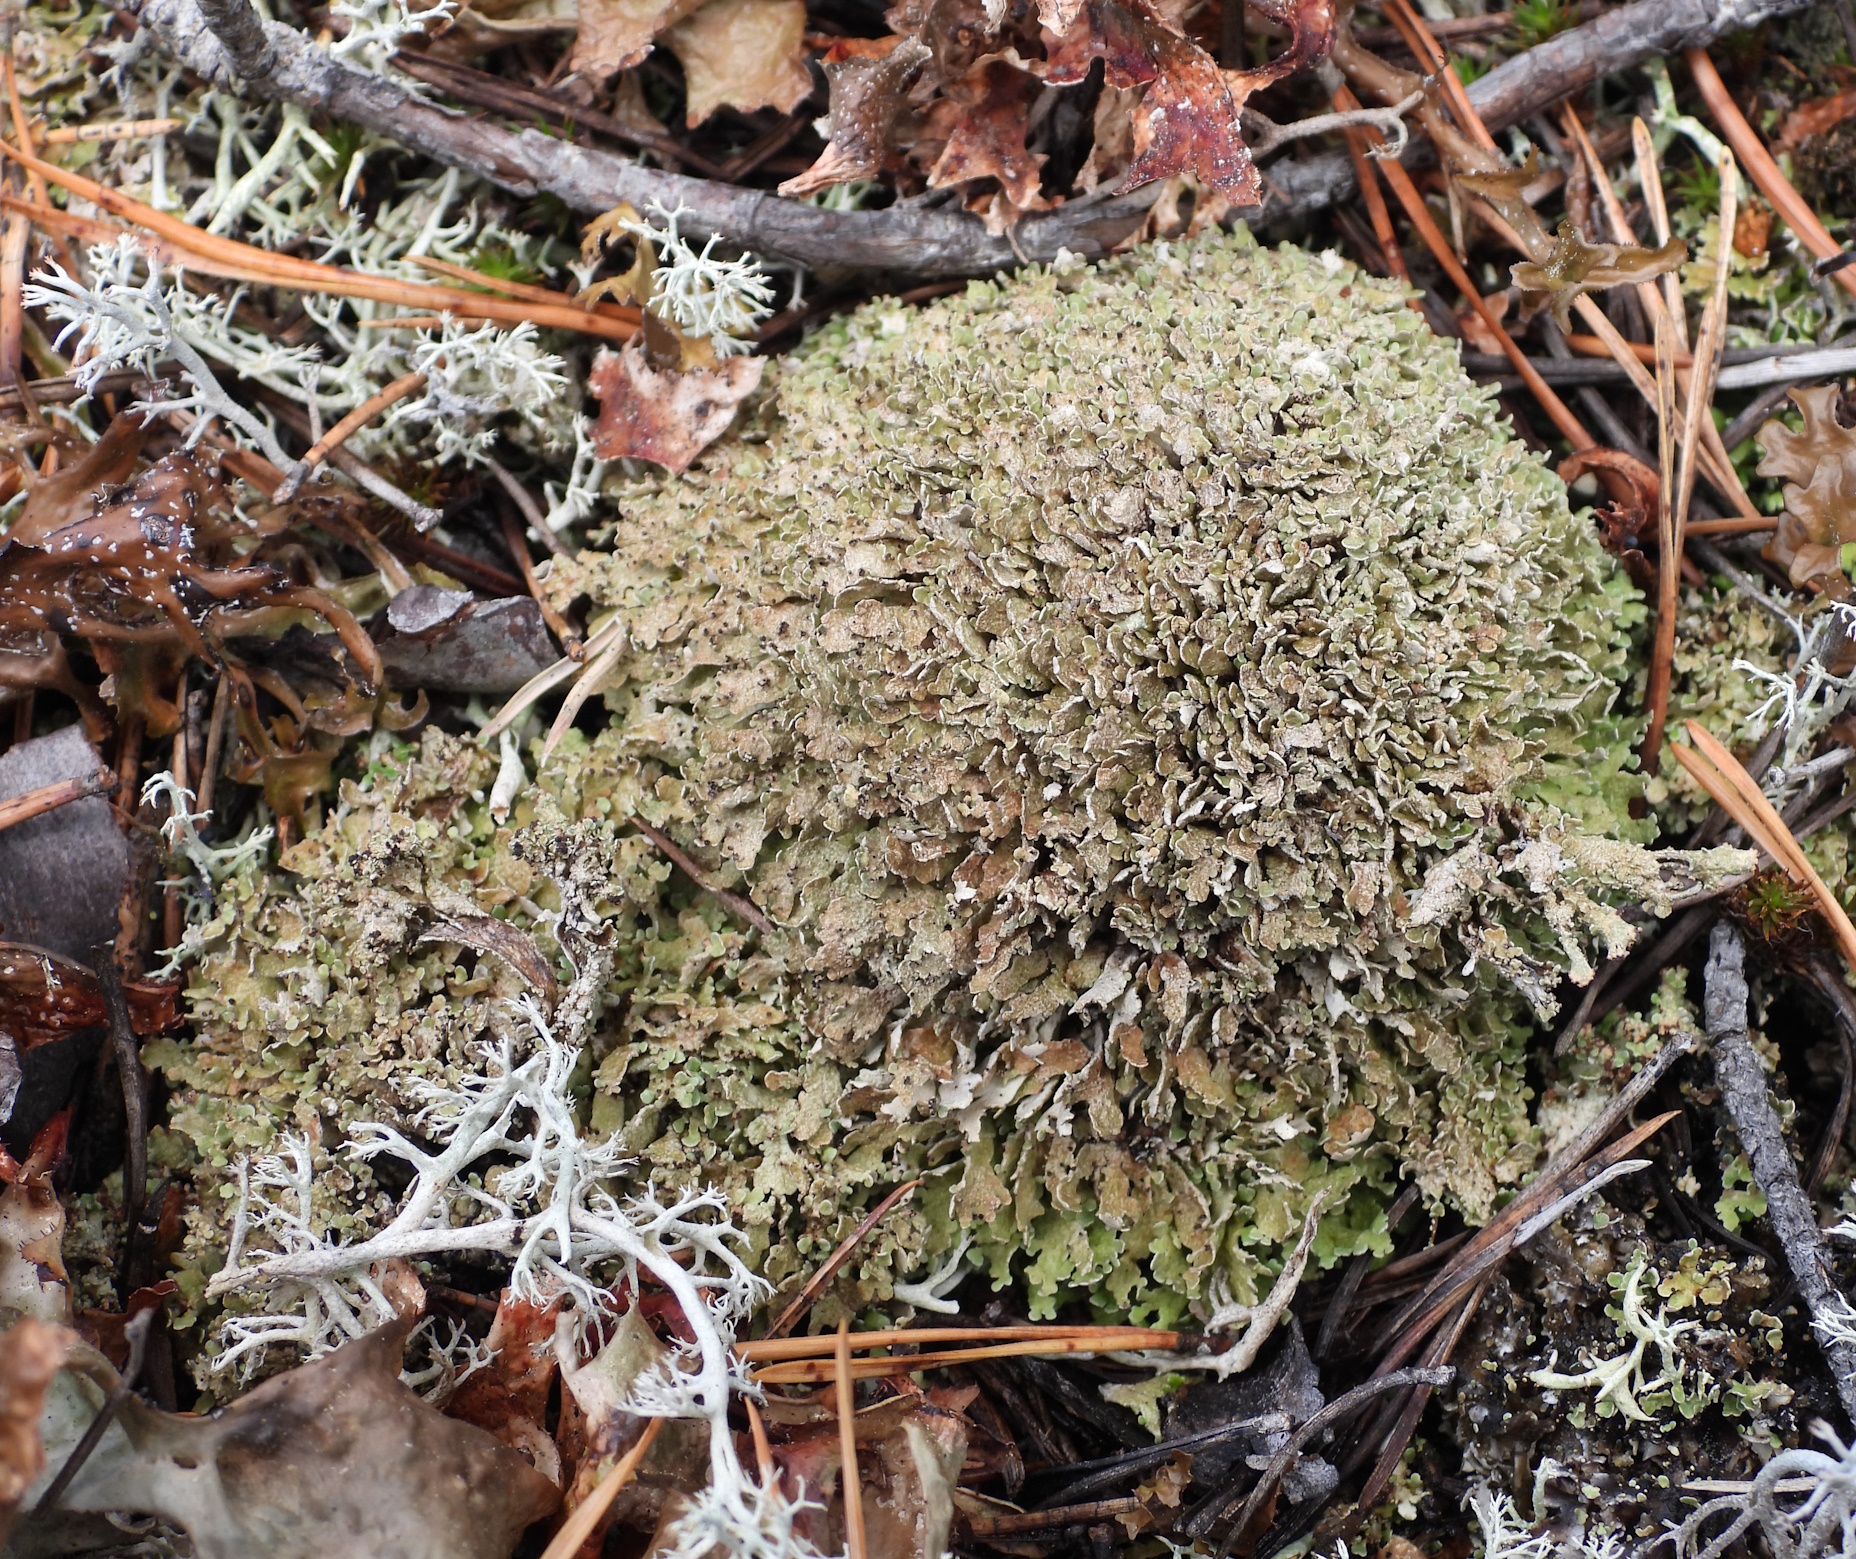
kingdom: Fungi
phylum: Ascomycota
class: Lecanoromycetes
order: Lecanorales
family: Cladoniaceae
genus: Cladonia
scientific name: Cladonia strepsilis
